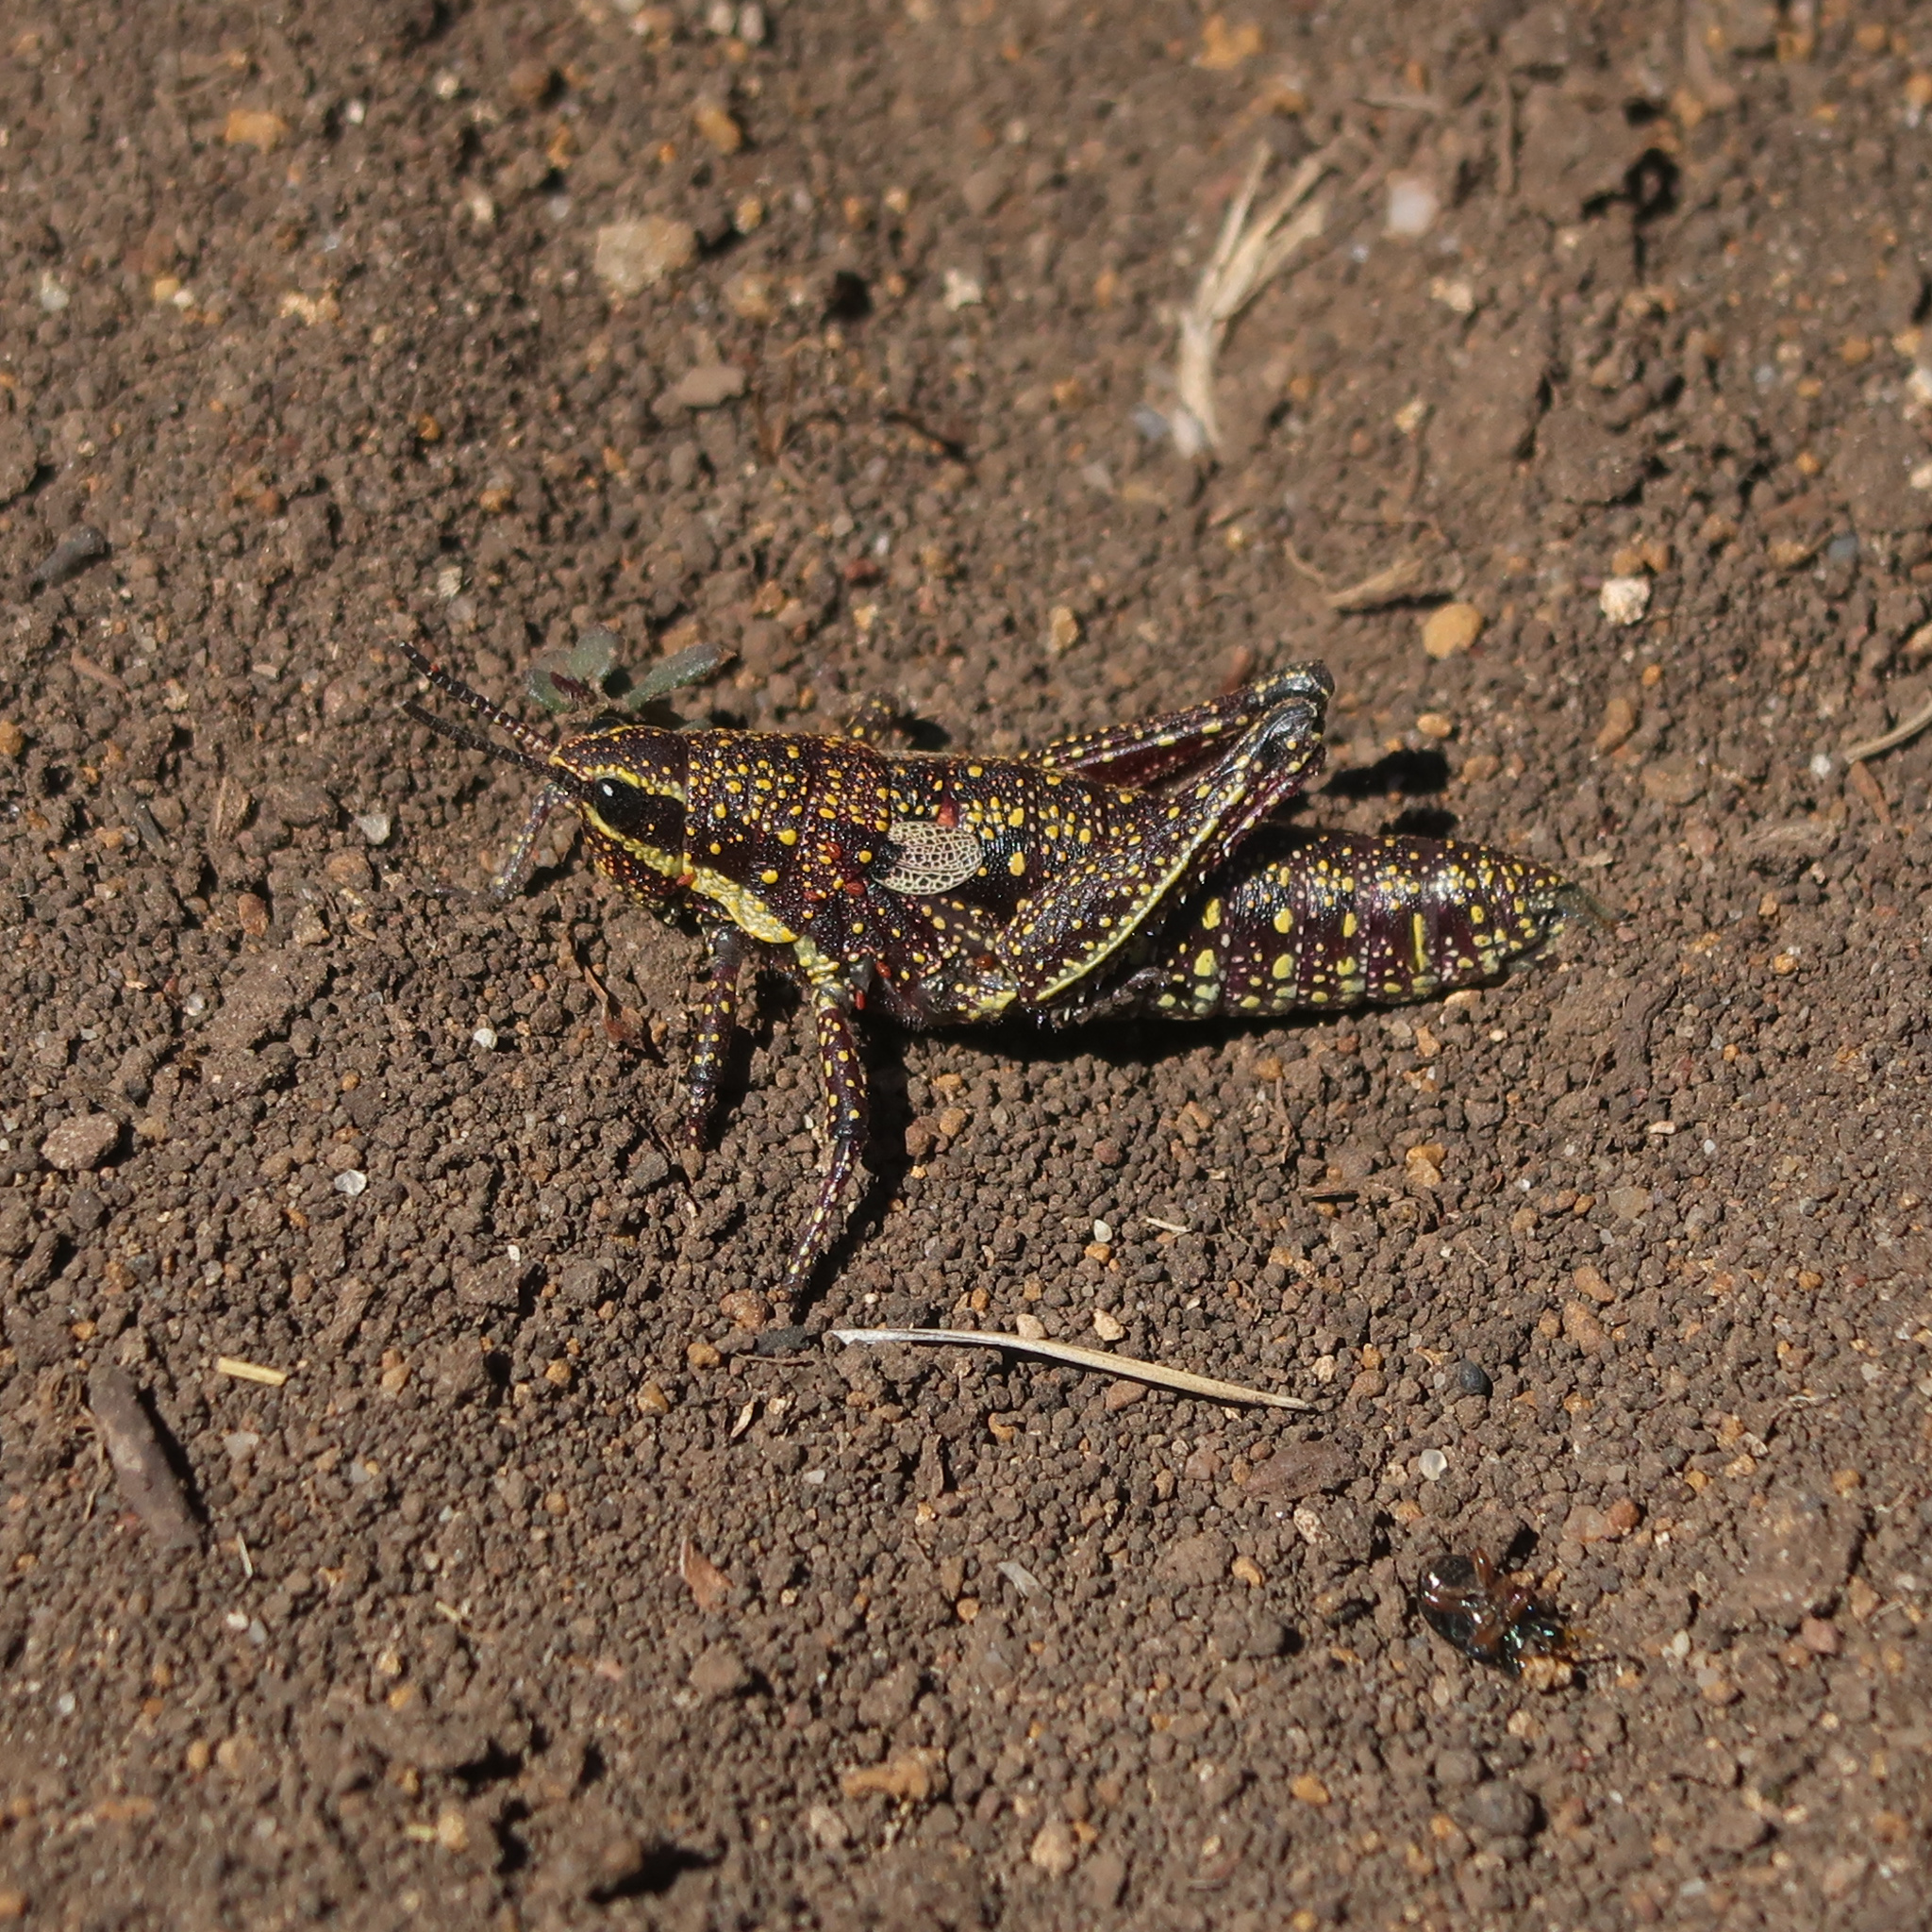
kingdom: Animalia
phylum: Arthropoda
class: Insecta
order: Orthoptera
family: Pyrgomorphidae
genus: Monistria
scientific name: Monistria concinna
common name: Southern pyrgomorph
